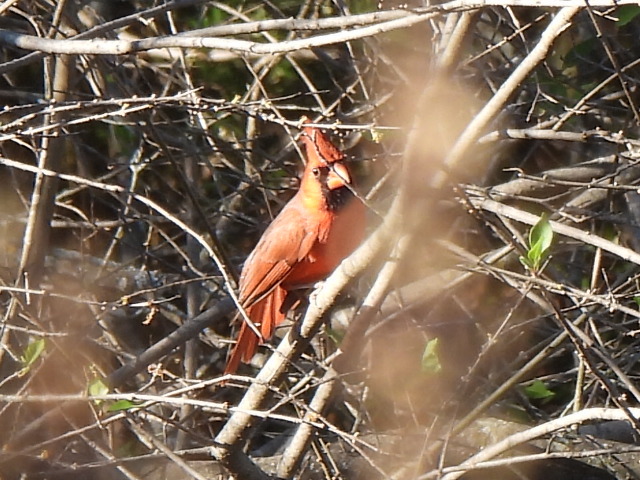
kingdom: Animalia
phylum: Chordata
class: Aves
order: Passeriformes
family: Cardinalidae
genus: Cardinalis
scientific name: Cardinalis cardinalis
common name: Northern cardinal
